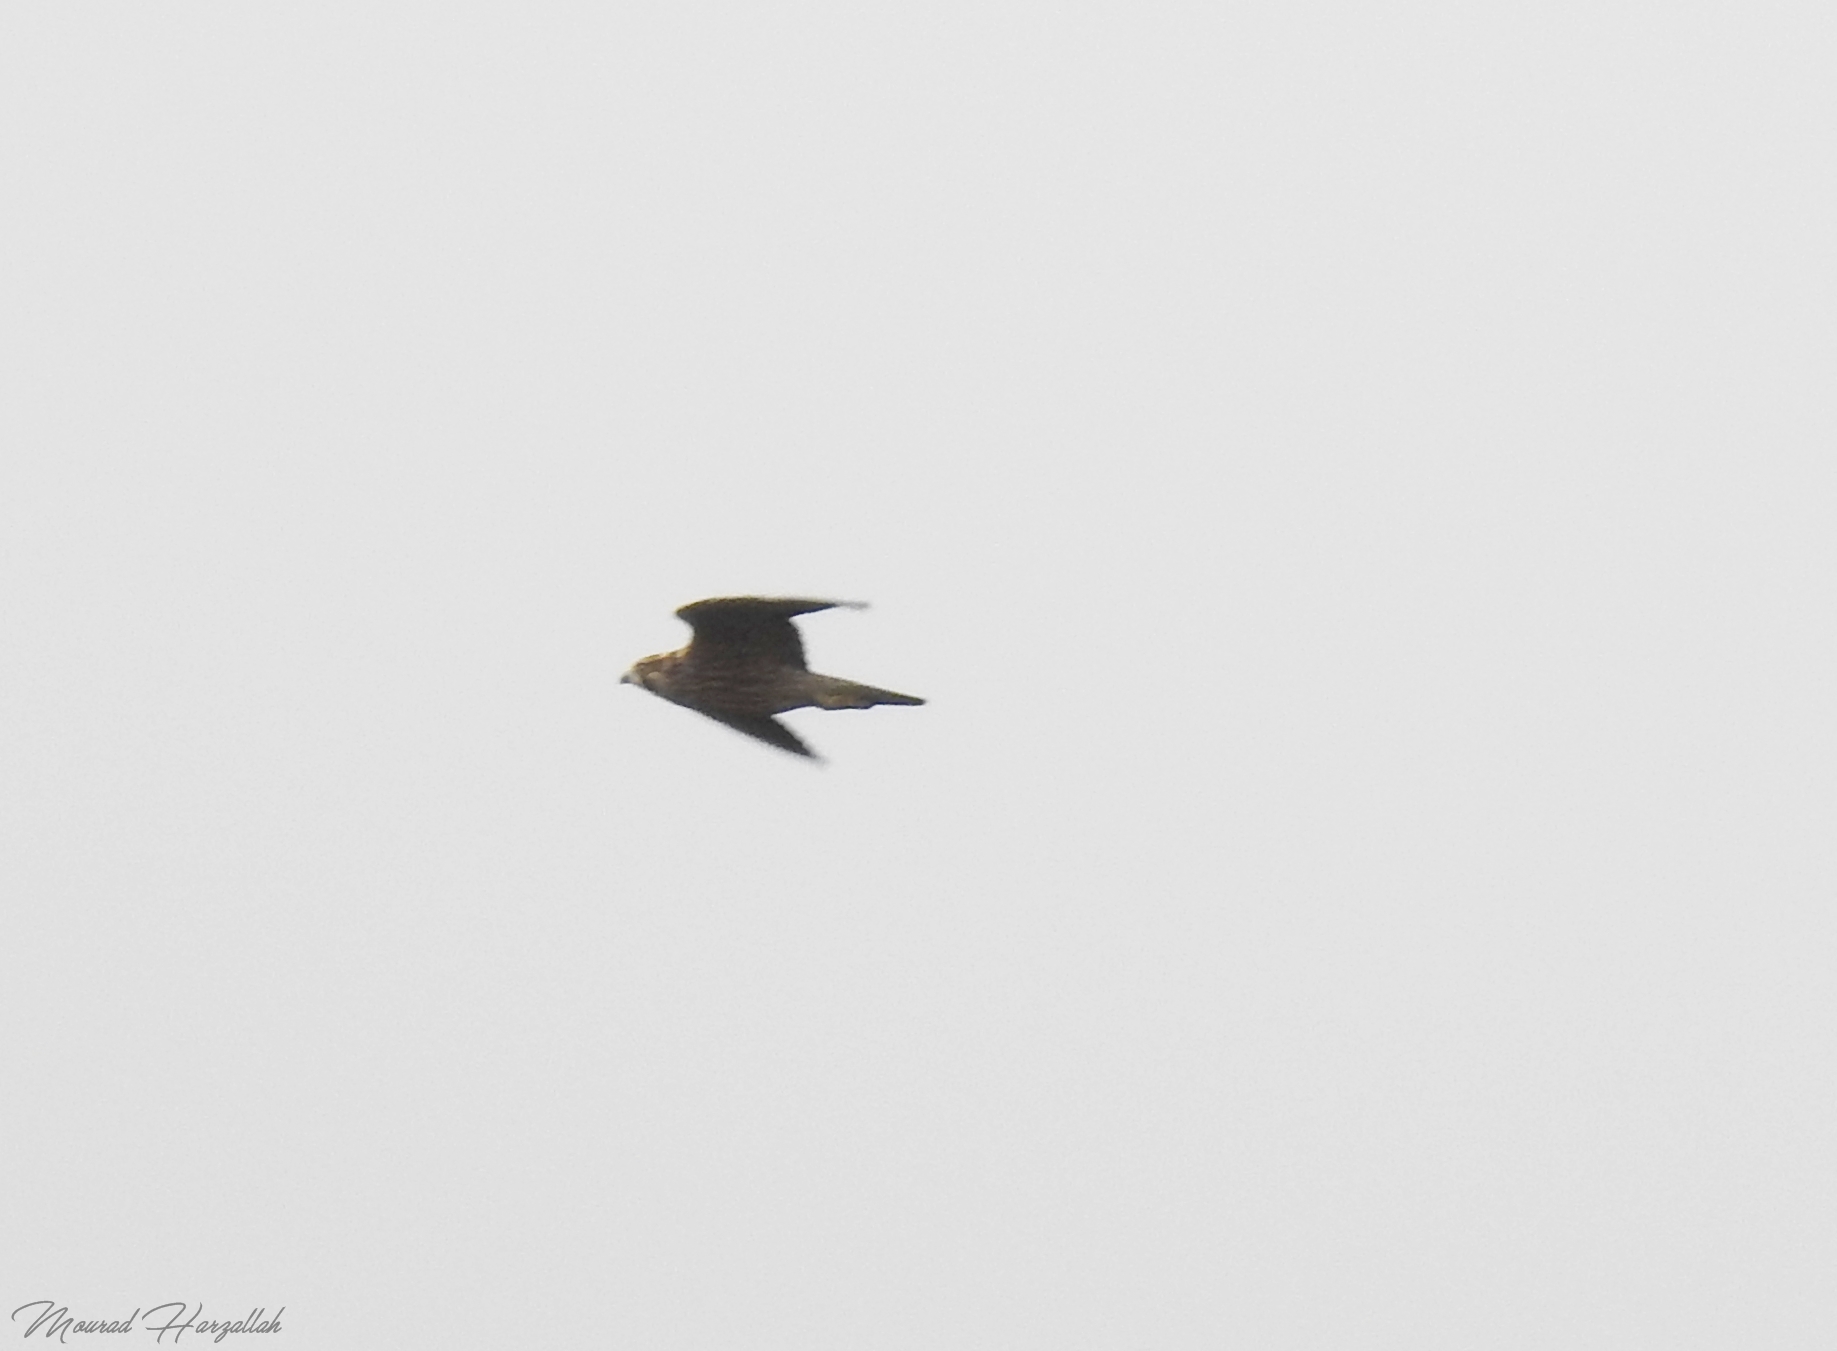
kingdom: Animalia
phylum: Chordata
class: Aves
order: Falconiformes
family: Falconidae
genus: Falco
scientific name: Falco peregrinus
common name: Peregrine falcon
